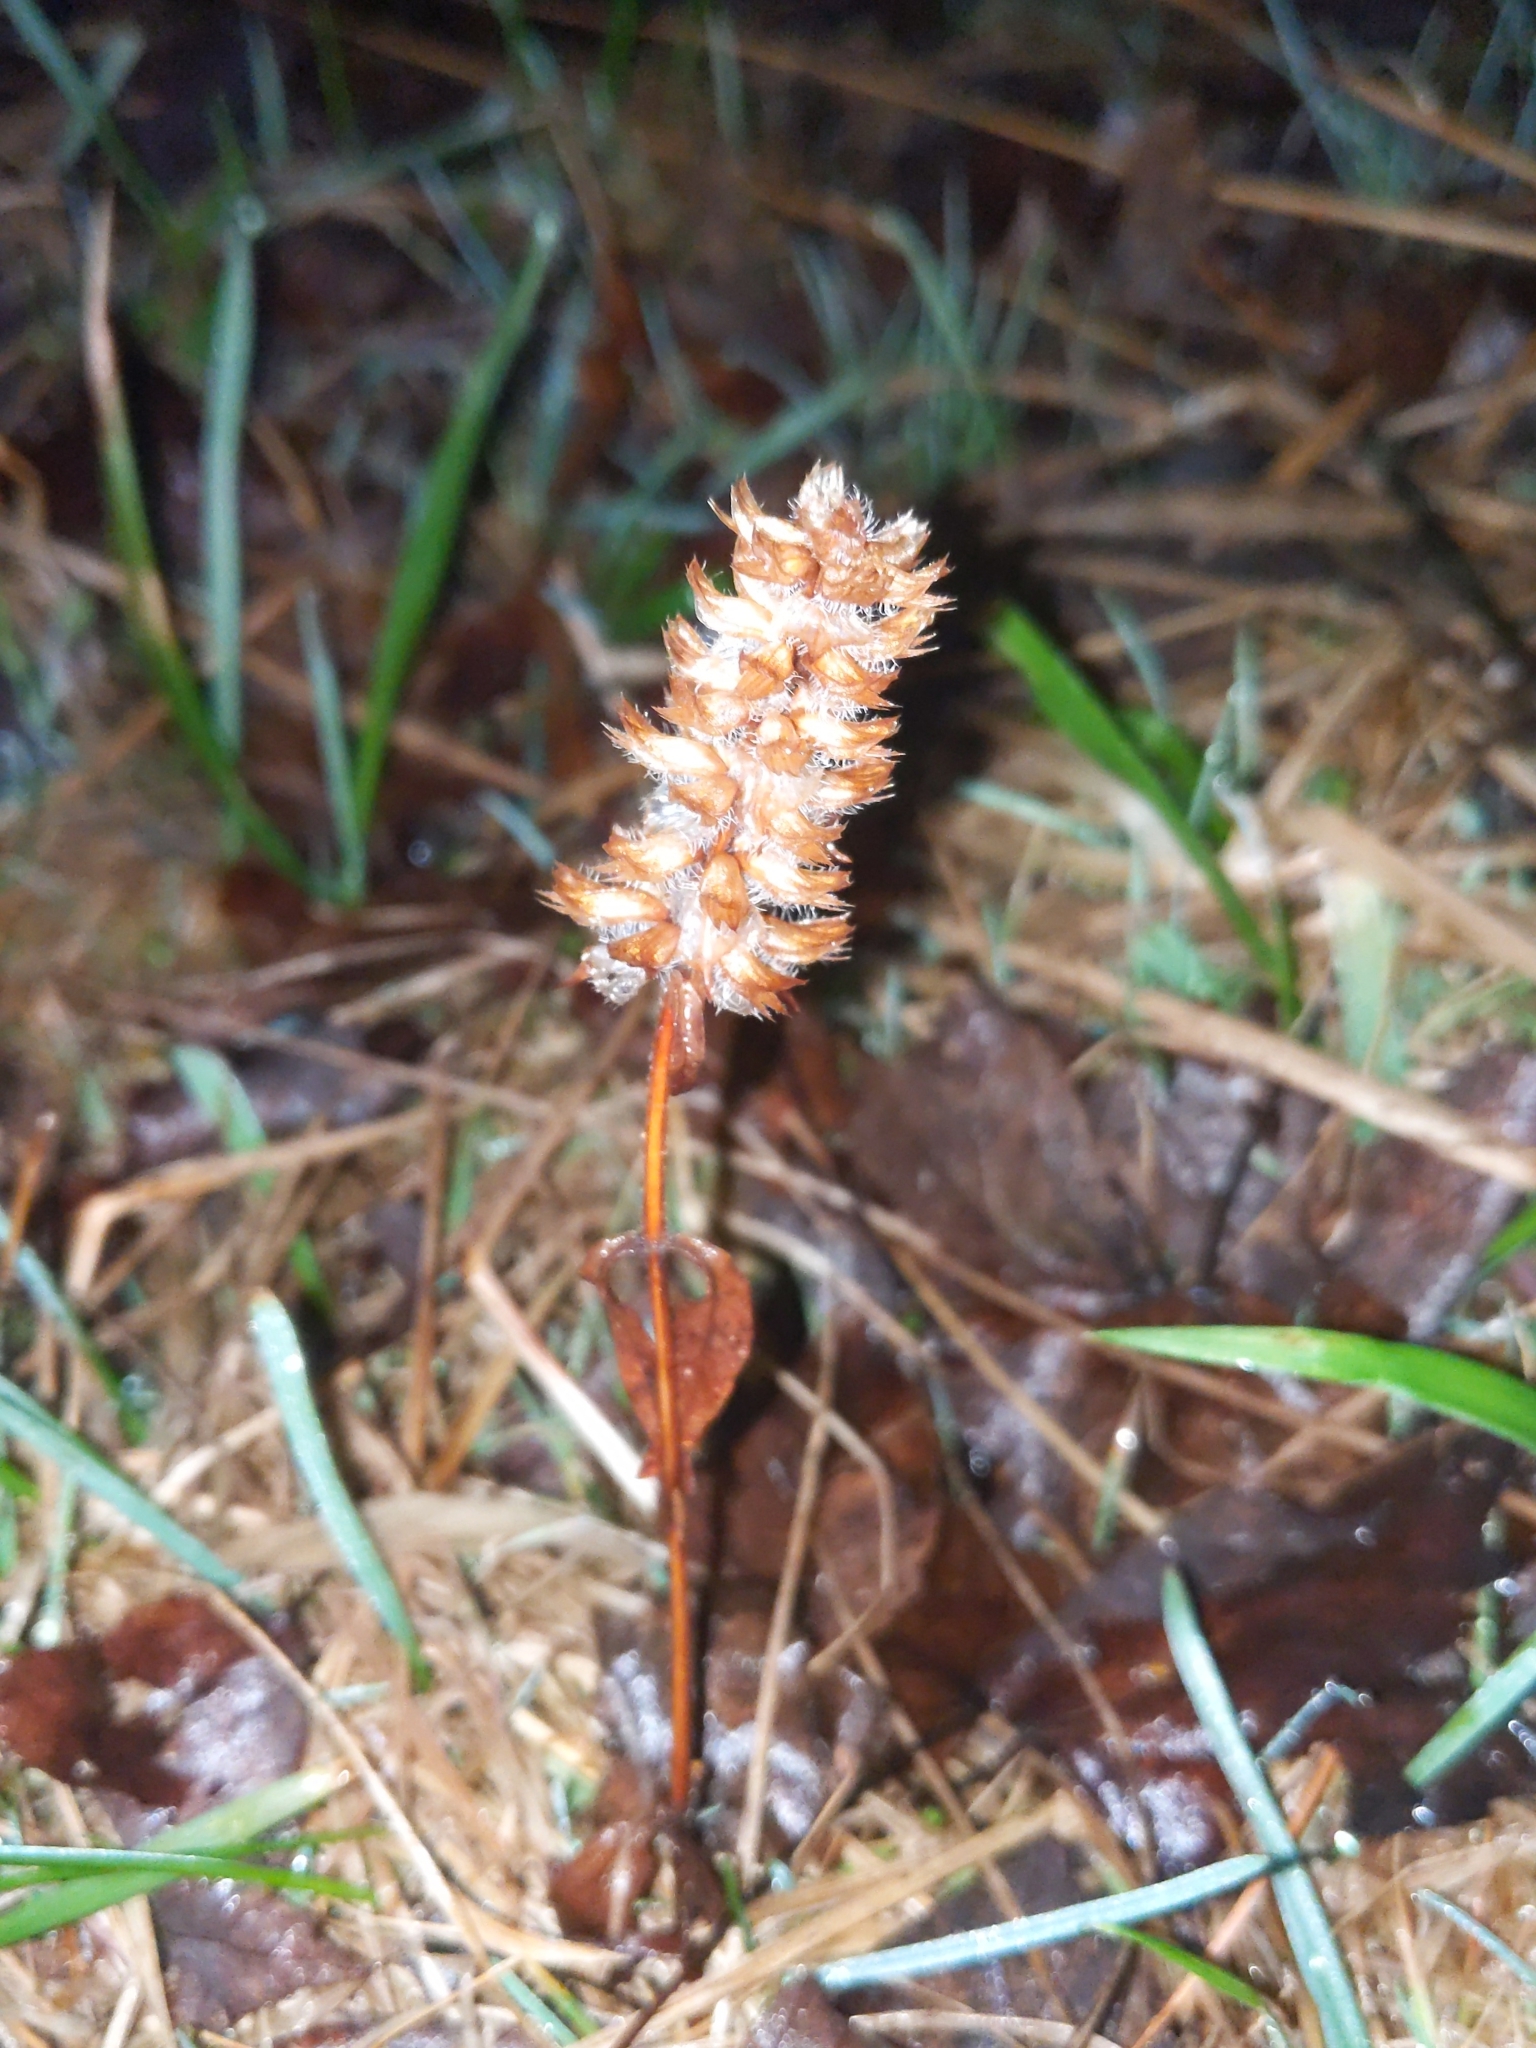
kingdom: Plantae
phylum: Tracheophyta
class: Magnoliopsida
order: Lamiales
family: Lamiaceae
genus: Prunella
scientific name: Prunella vulgaris
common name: Heal-all
